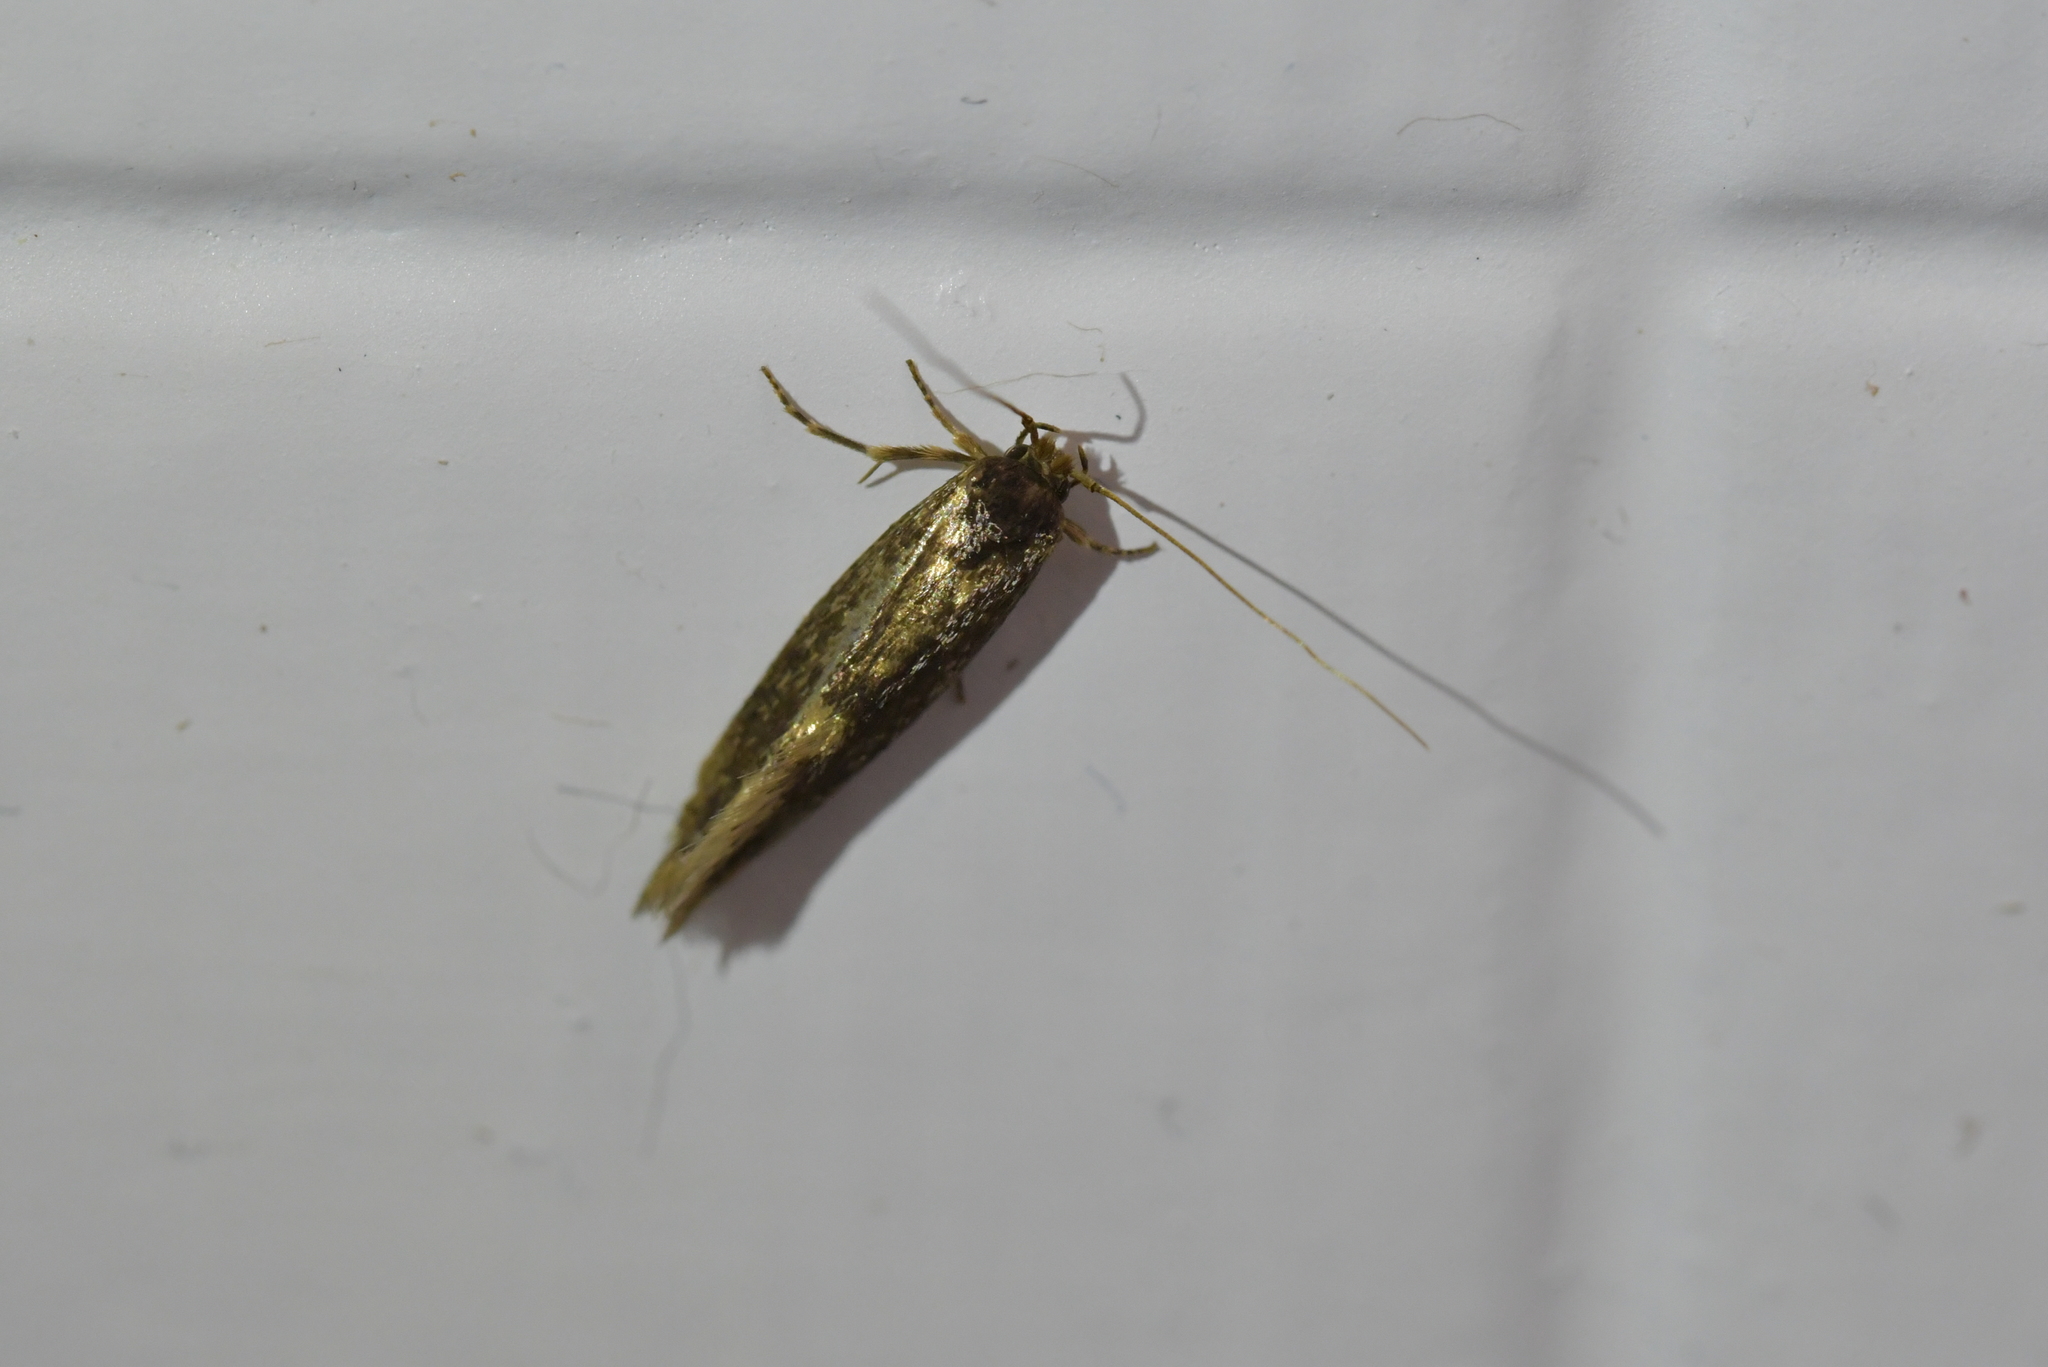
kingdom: Animalia
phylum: Arthropoda
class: Insecta
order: Lepidoptera
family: Tineidae
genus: Opogona
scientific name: Opogona omoscopa
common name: Moth
